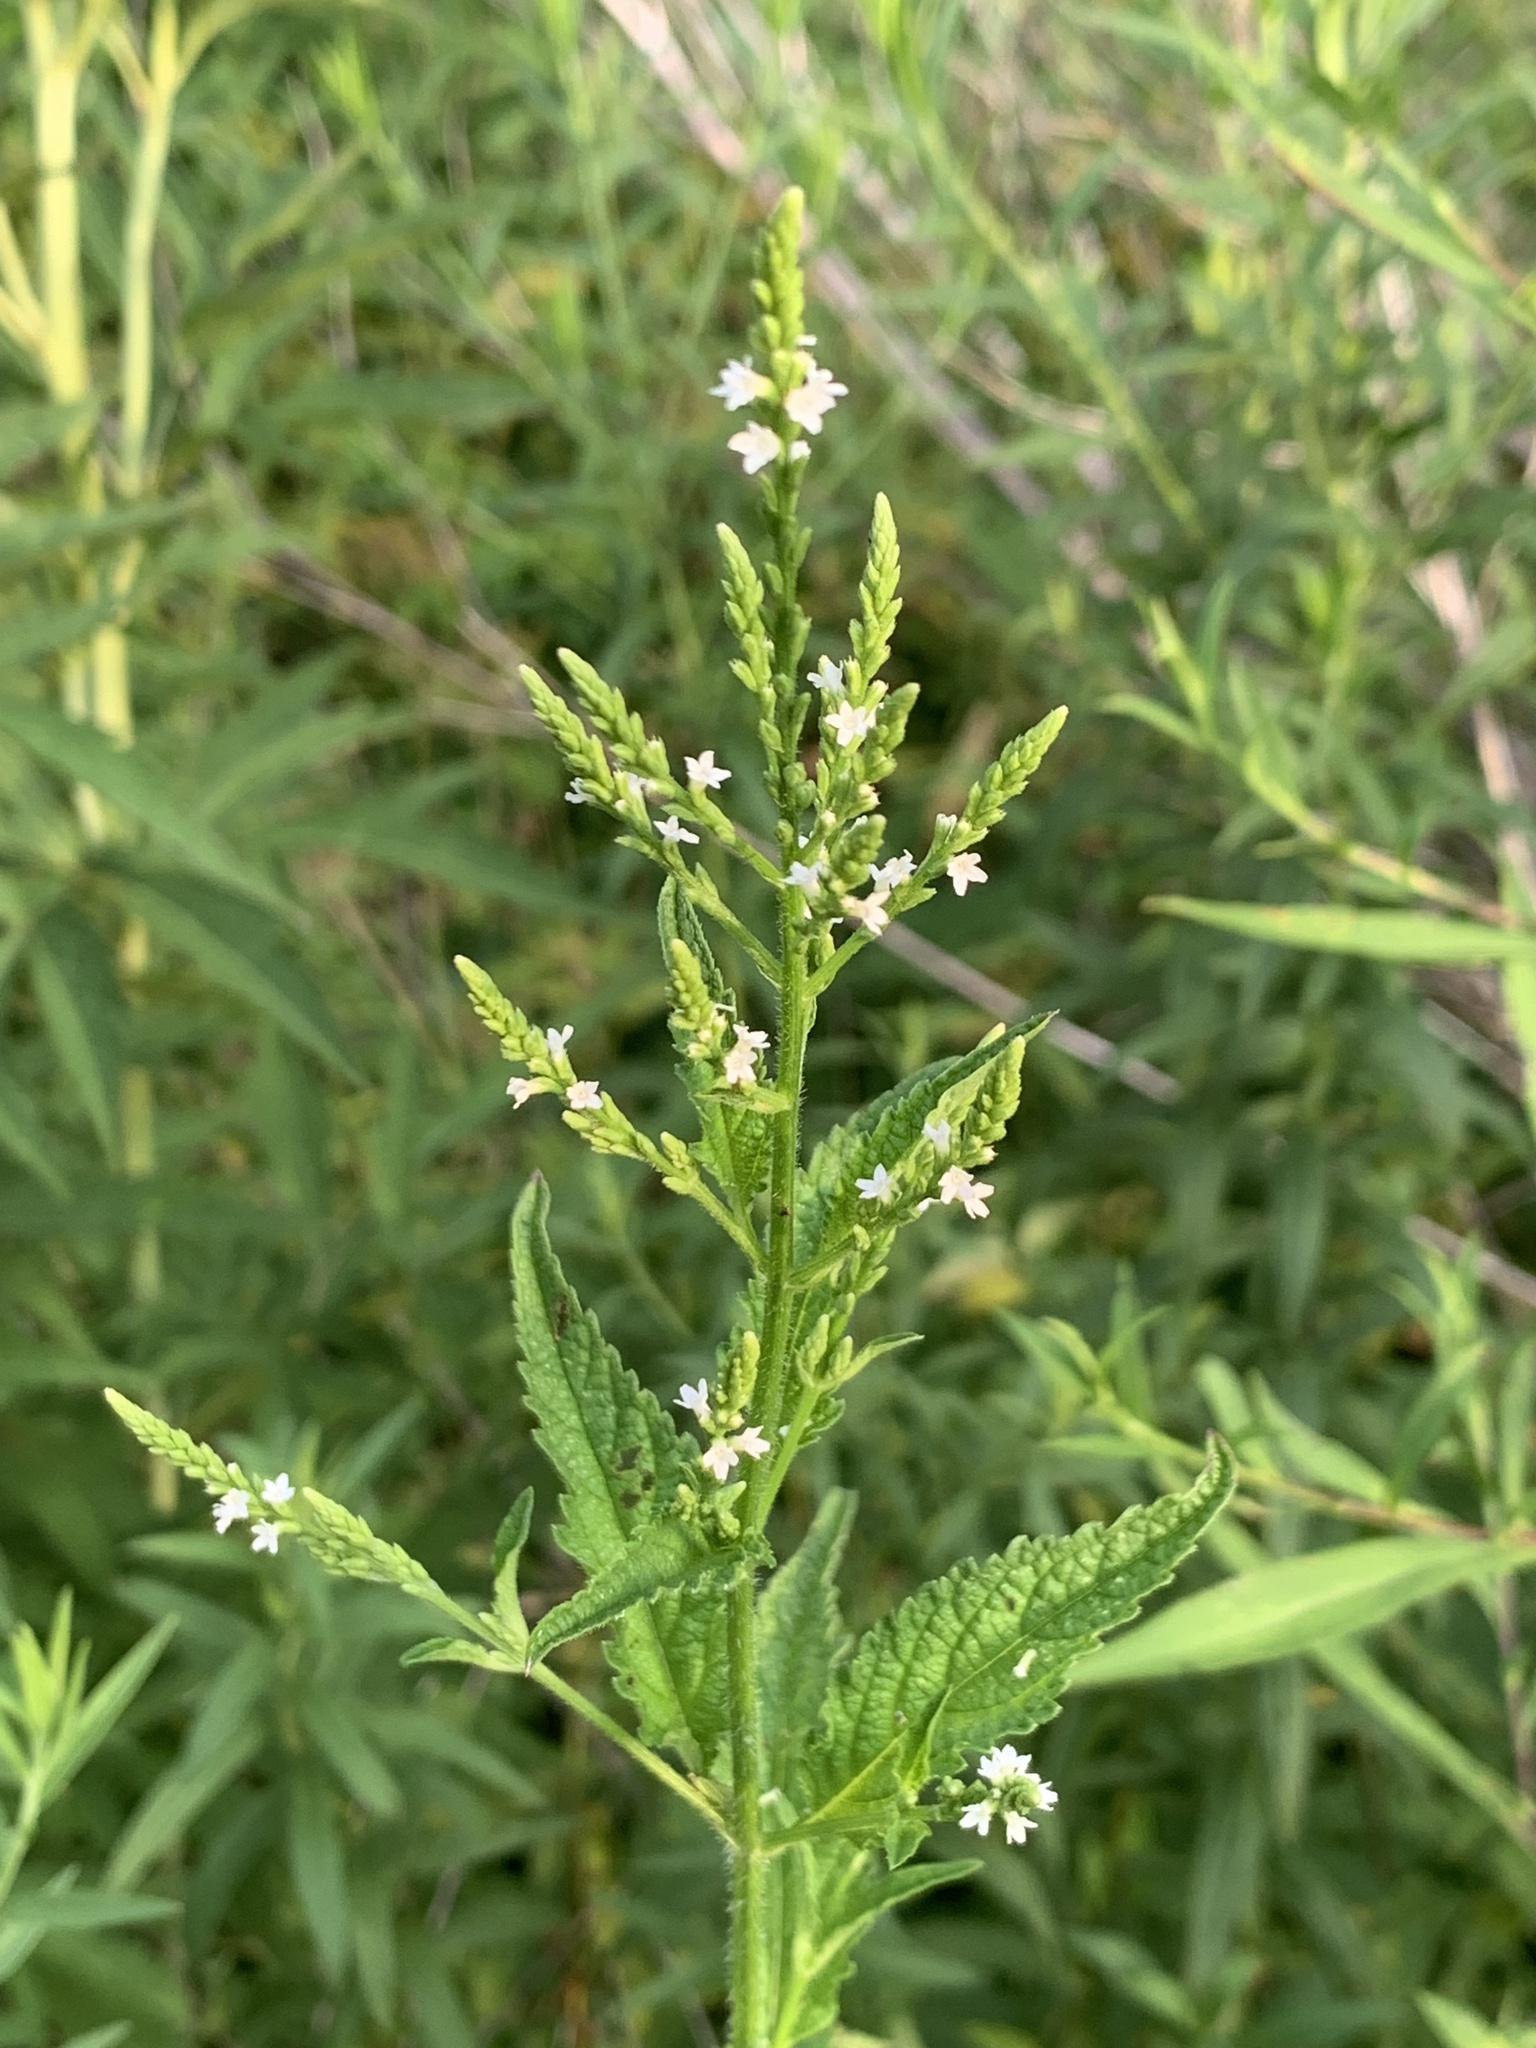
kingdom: Plantae
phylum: Tracheophyta
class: Magnoliopsida
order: Lamiales
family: Verbenaceae
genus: Verbena
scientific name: Verbena urticifolia
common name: Nettle-leaved vervain
